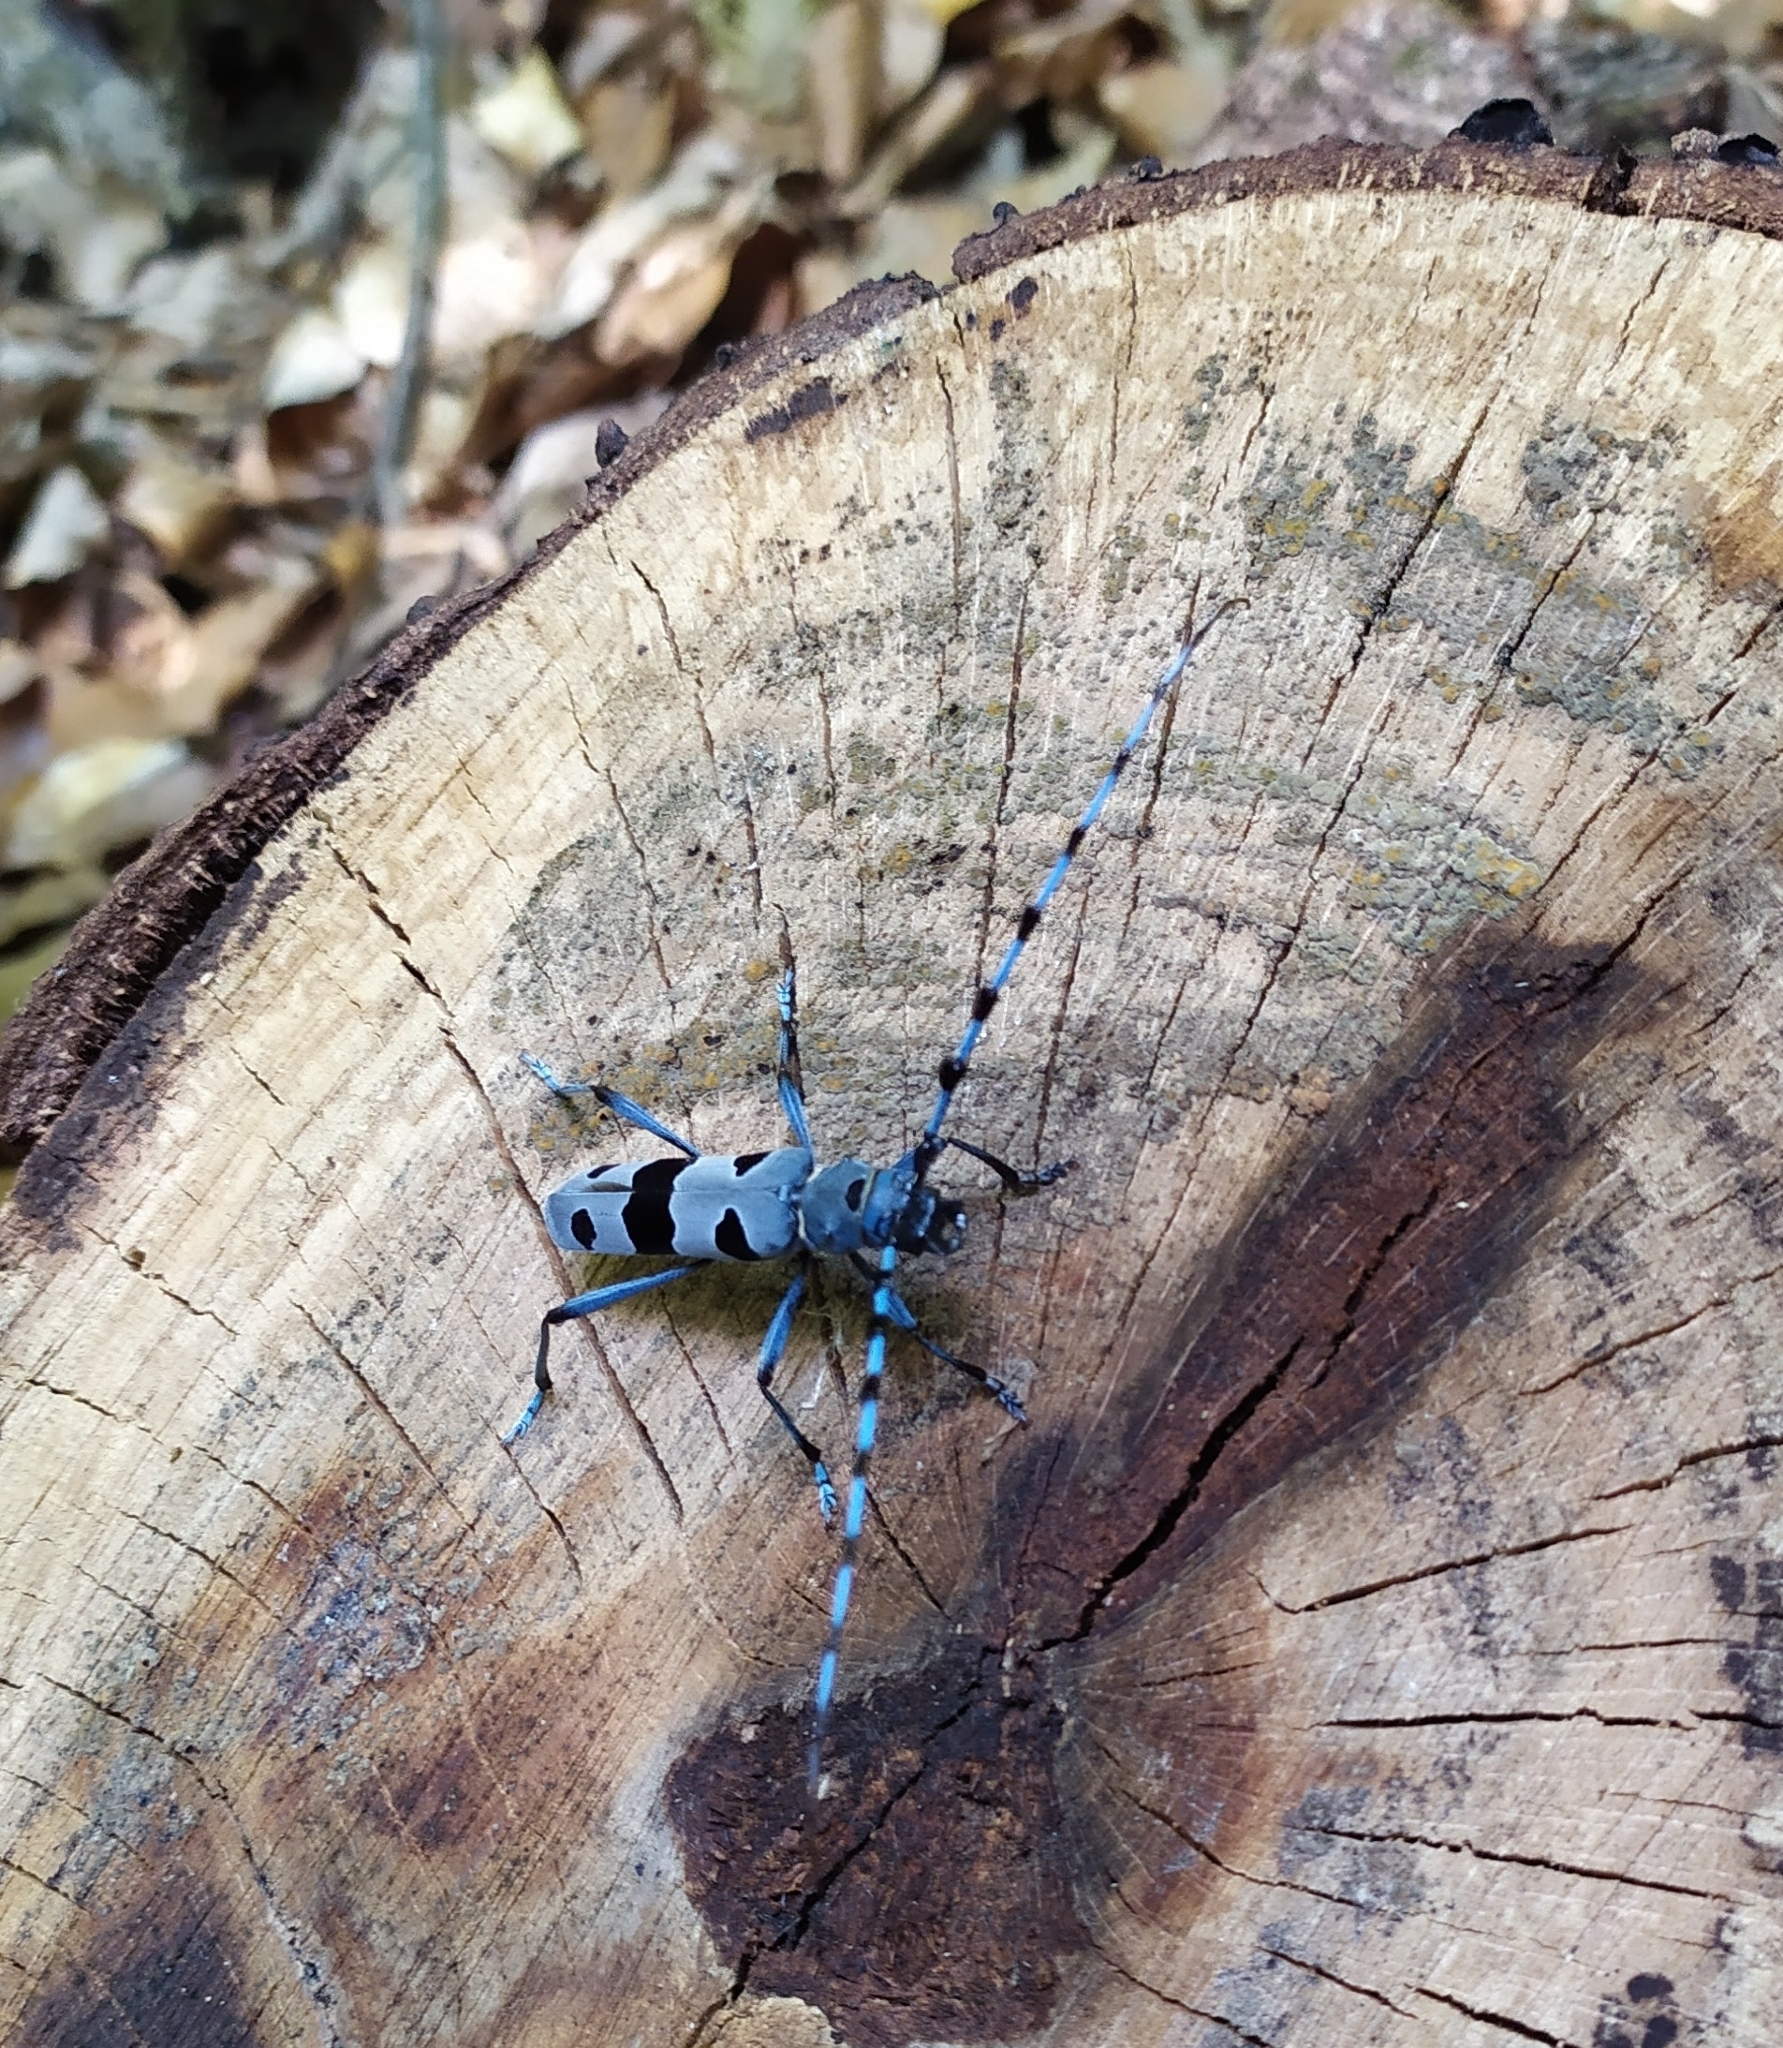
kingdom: Animalia
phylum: Arthropoda
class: Insecta
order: Coleoptera
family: Cerambycidae
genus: Rosalia
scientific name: Rosalia alpina
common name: Rosalia longicorn
